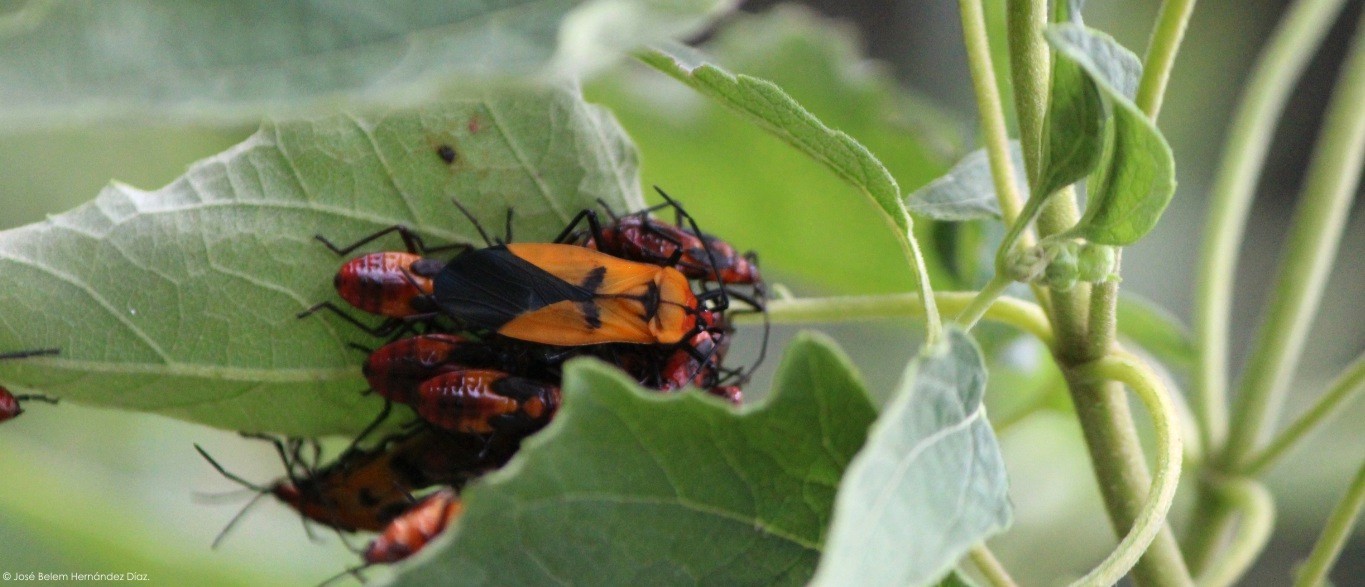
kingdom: Animalia
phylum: Arthropoda
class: Insecta
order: Hemiptera
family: Lygaeidae
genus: Oncopeltus
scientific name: Oncopeltus varicolor
